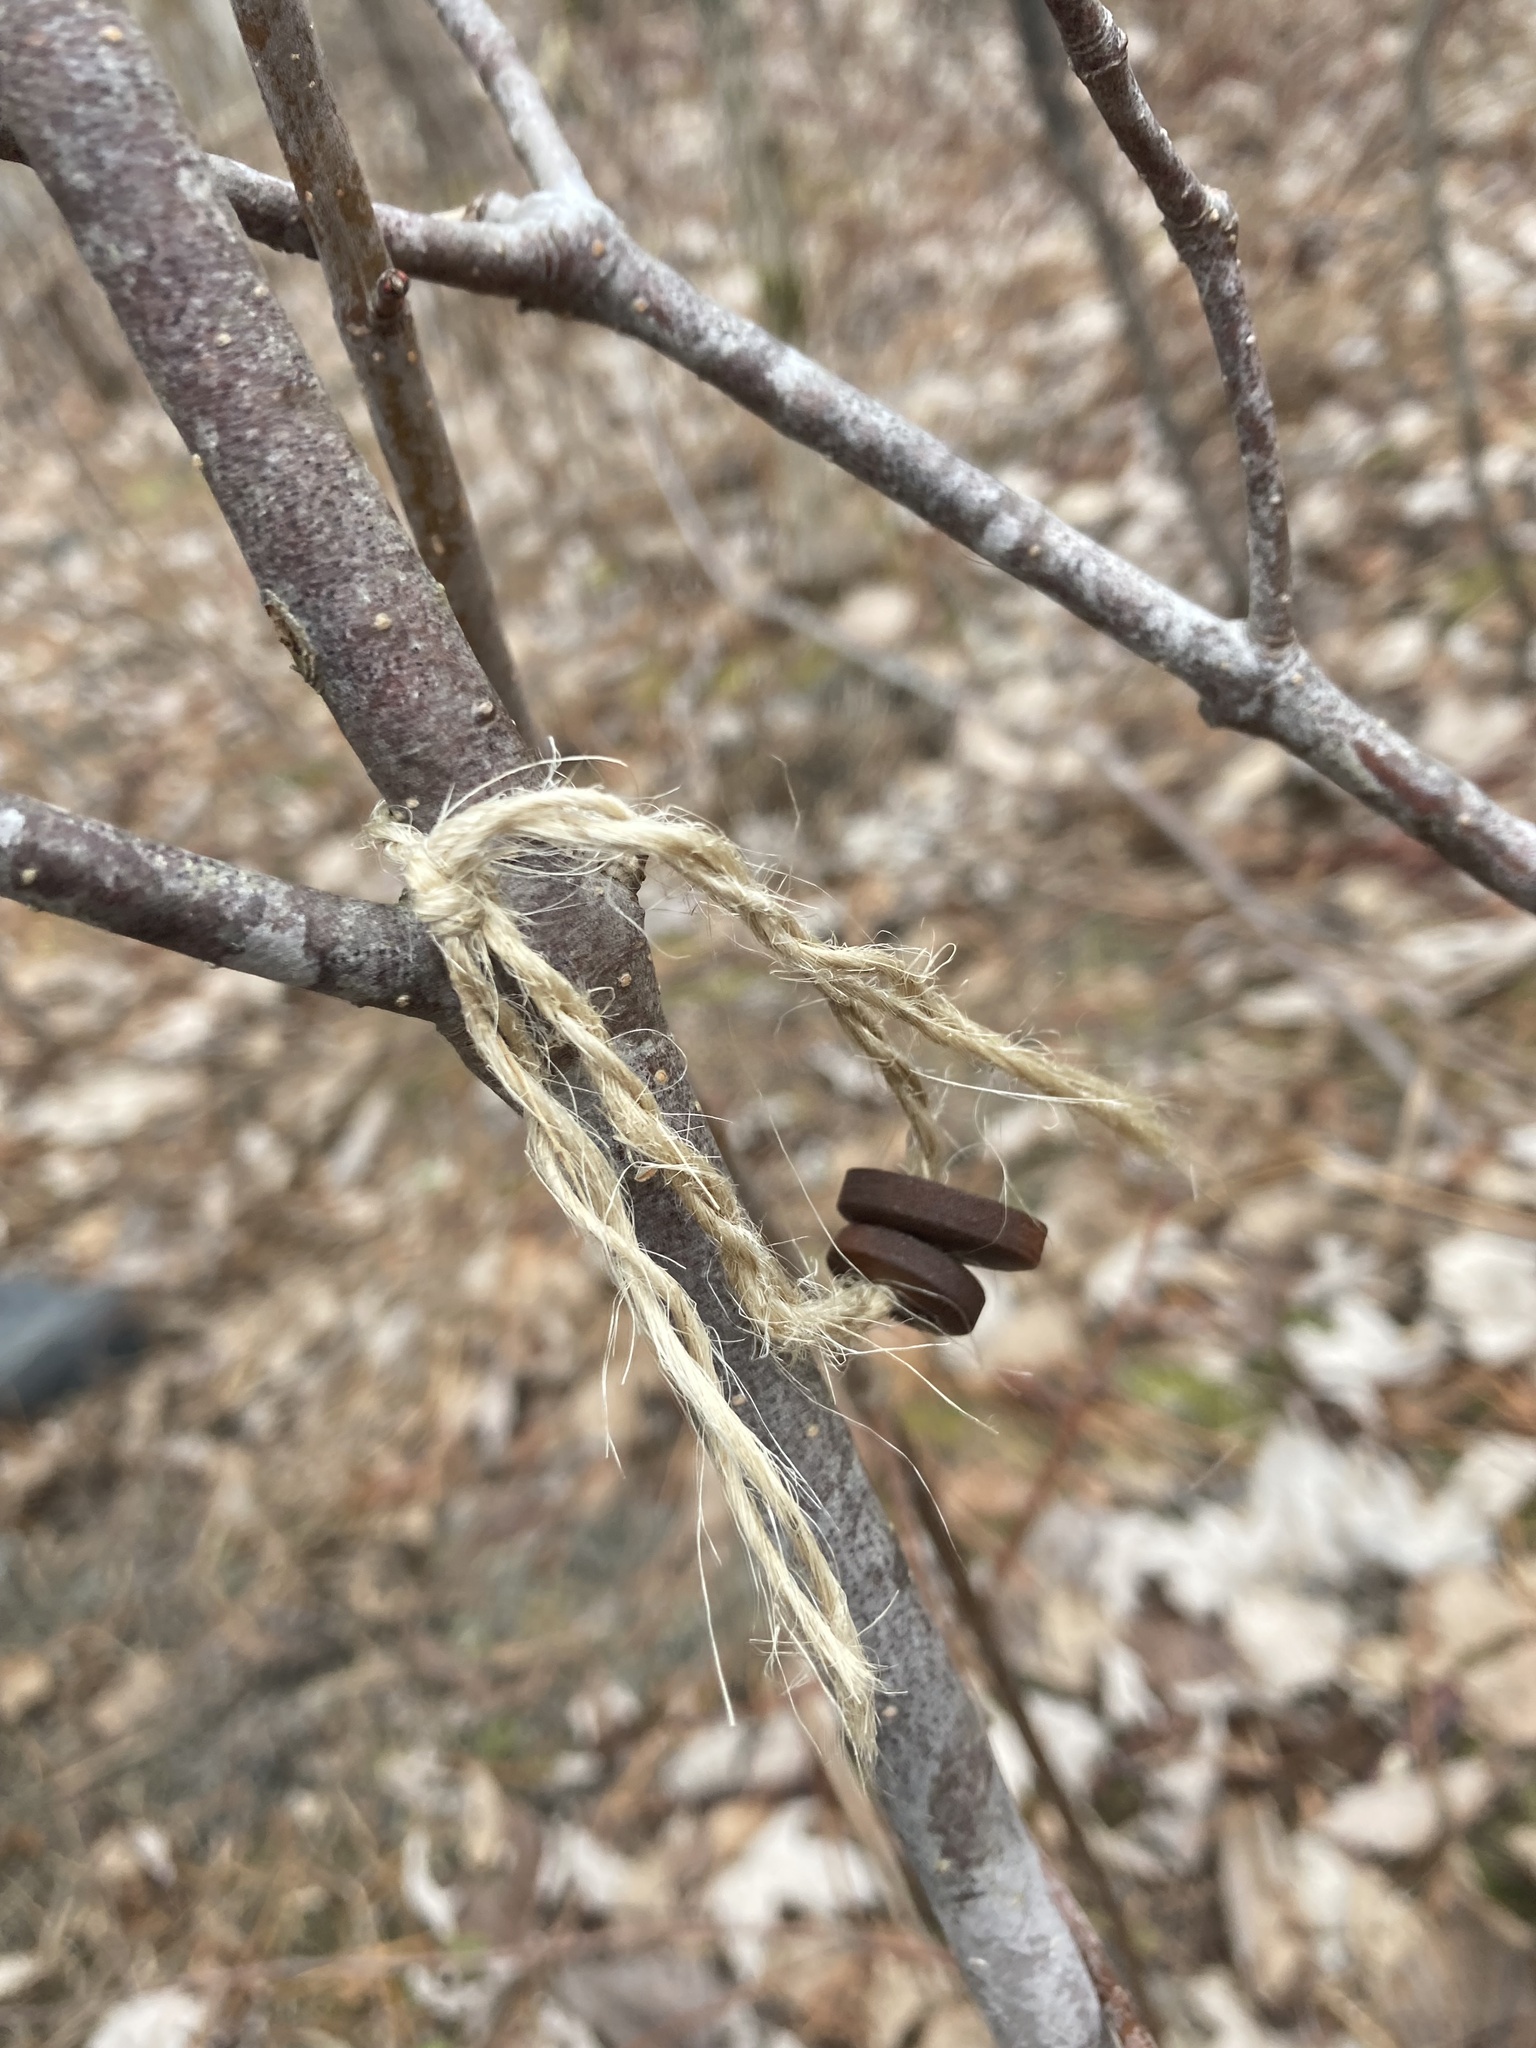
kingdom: Plantae
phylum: Tracheophyta
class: Magnoliopsida
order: Dipsacales
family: Viburnaceae
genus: Viburnum
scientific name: Viburnum acerifolium
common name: Dockmackie
